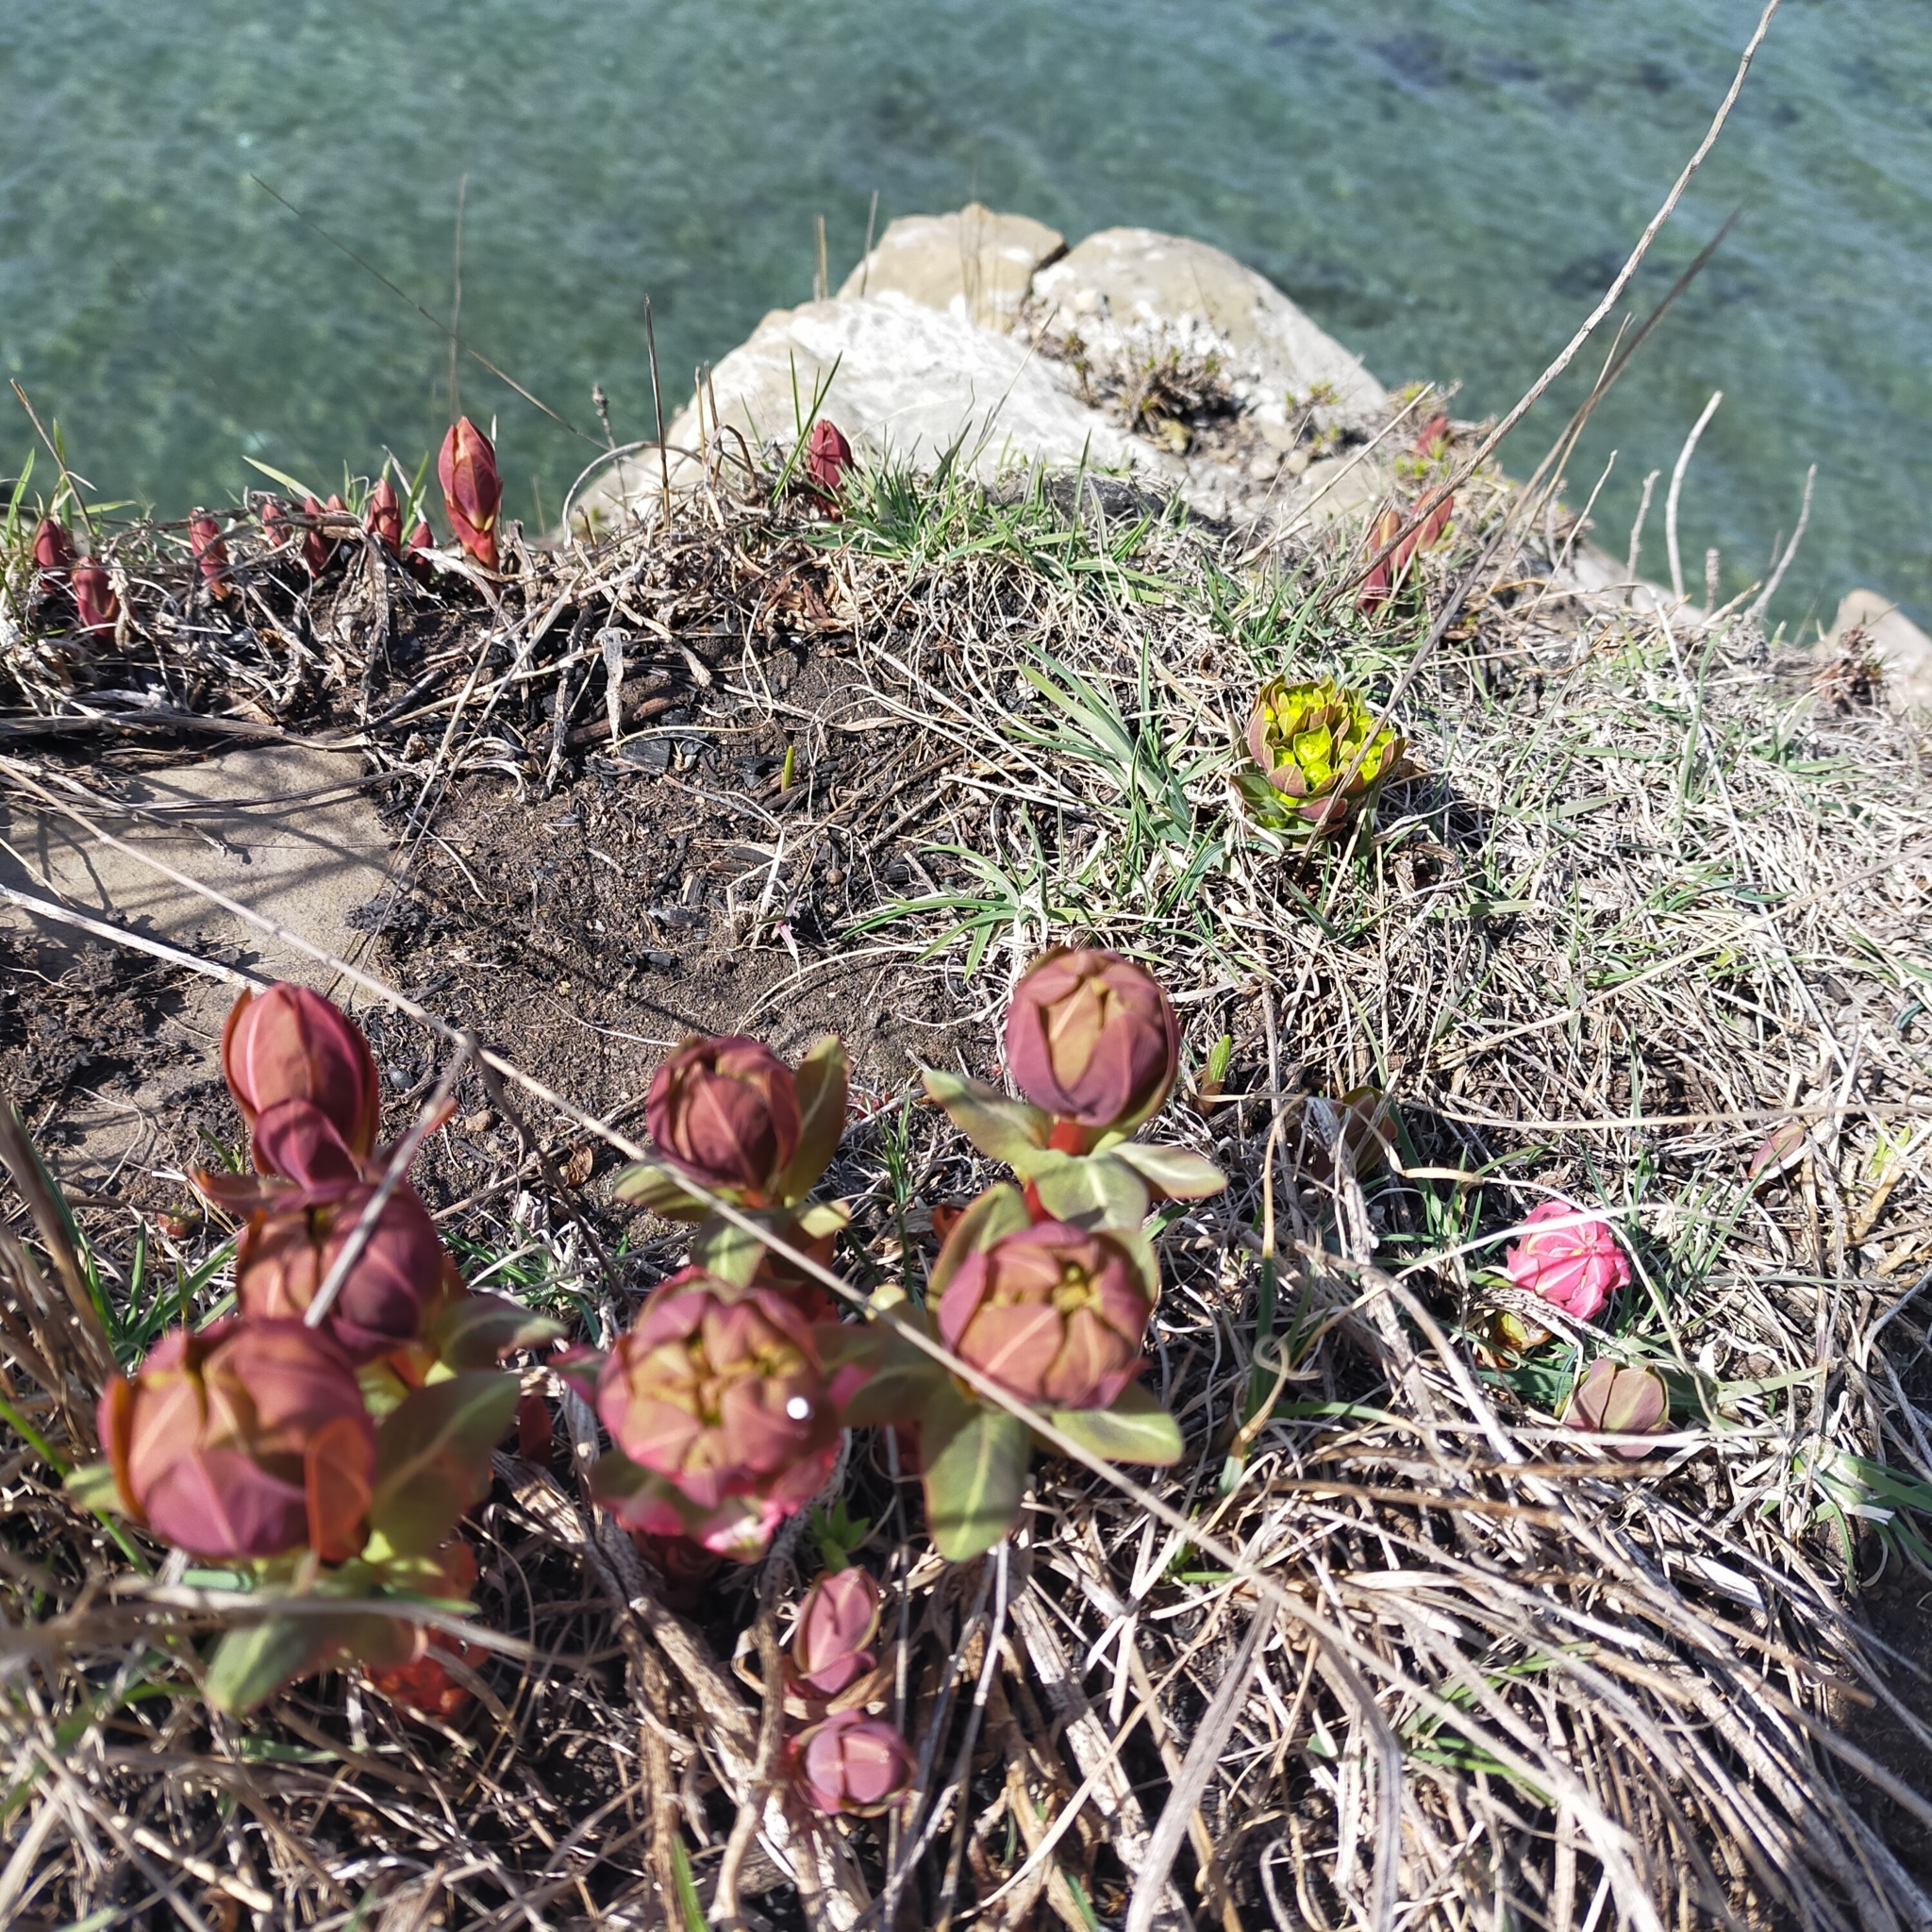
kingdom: Plantae
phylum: Tracheophyta
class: Magnoliopsida
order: Malpighiales
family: Euphorbiaceae
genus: Euphorbia
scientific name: Euphorbia hylonoma
